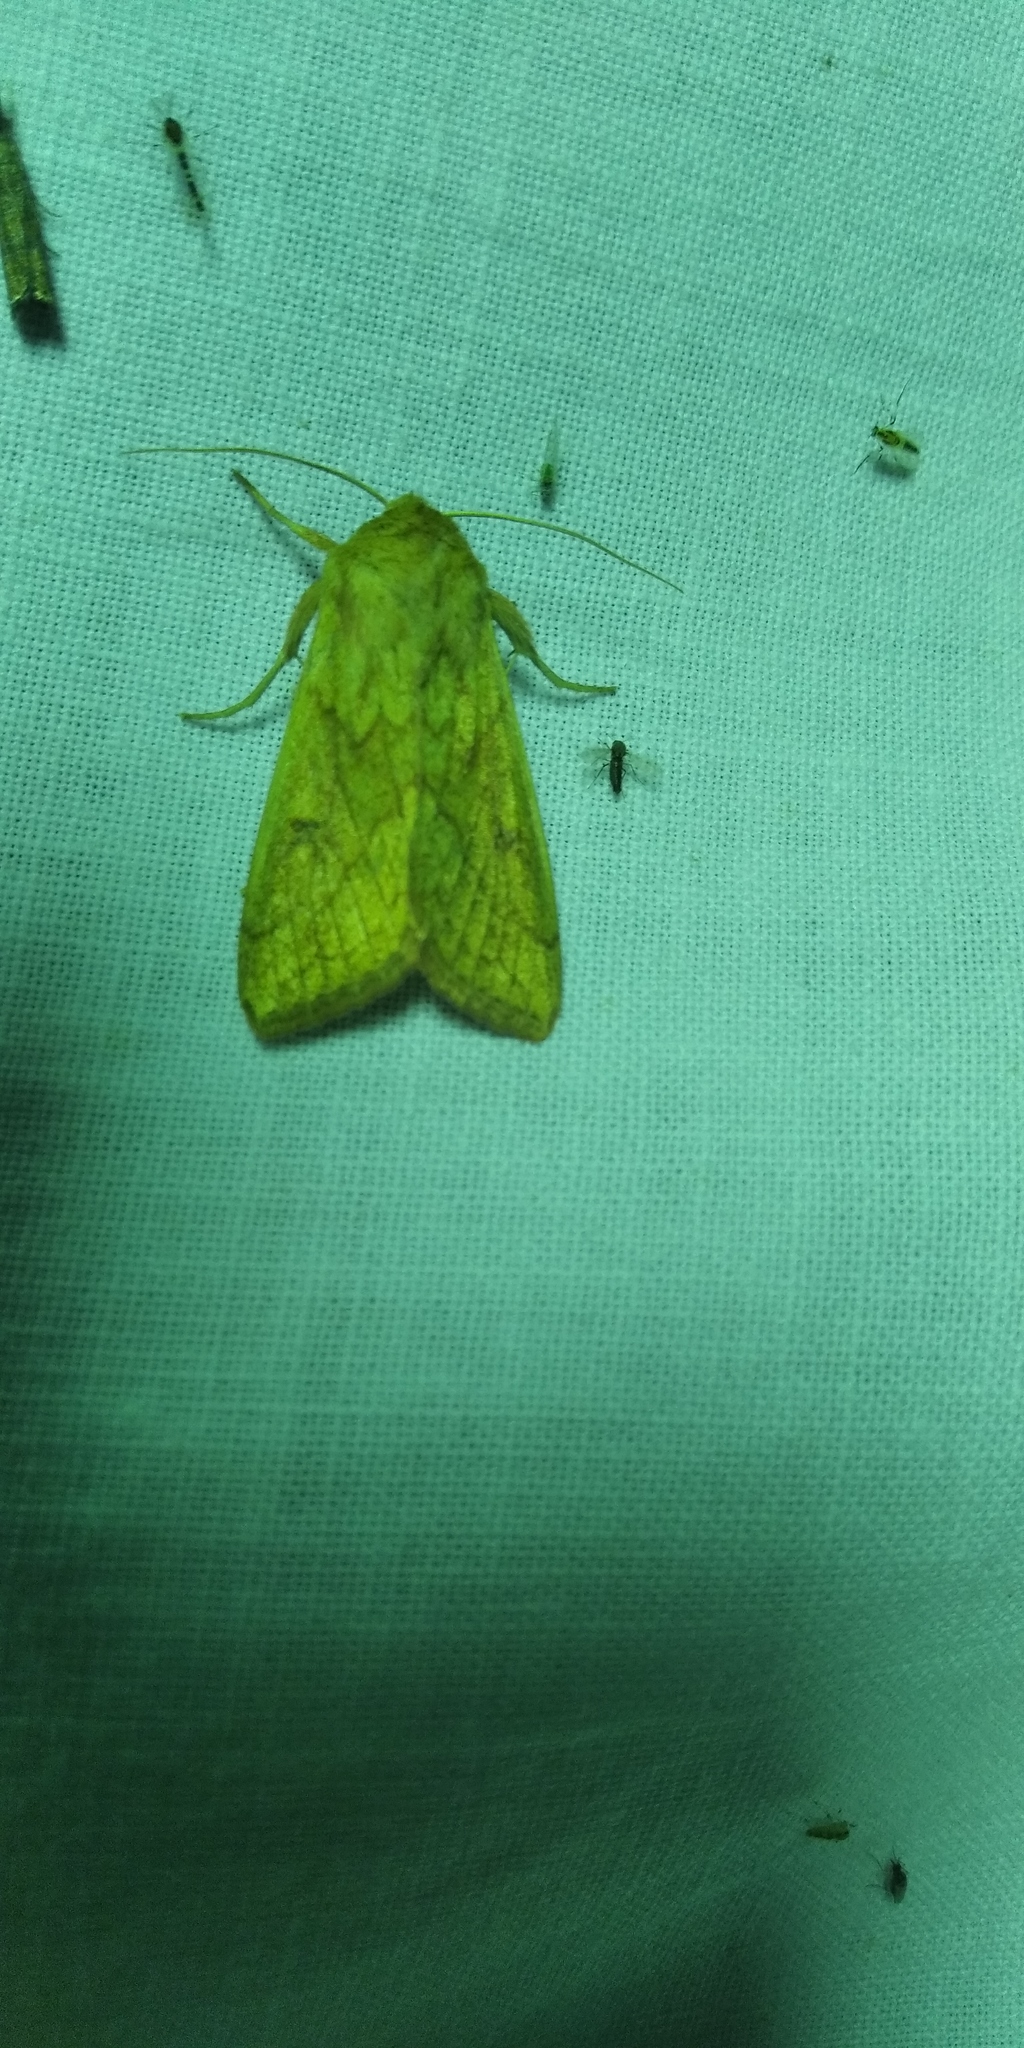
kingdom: Animalia
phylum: Arthropoda
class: Insecta
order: Lepidoptera
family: Noctuidae
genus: Mythimna
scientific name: Mythimna vitellina
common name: Delicate
